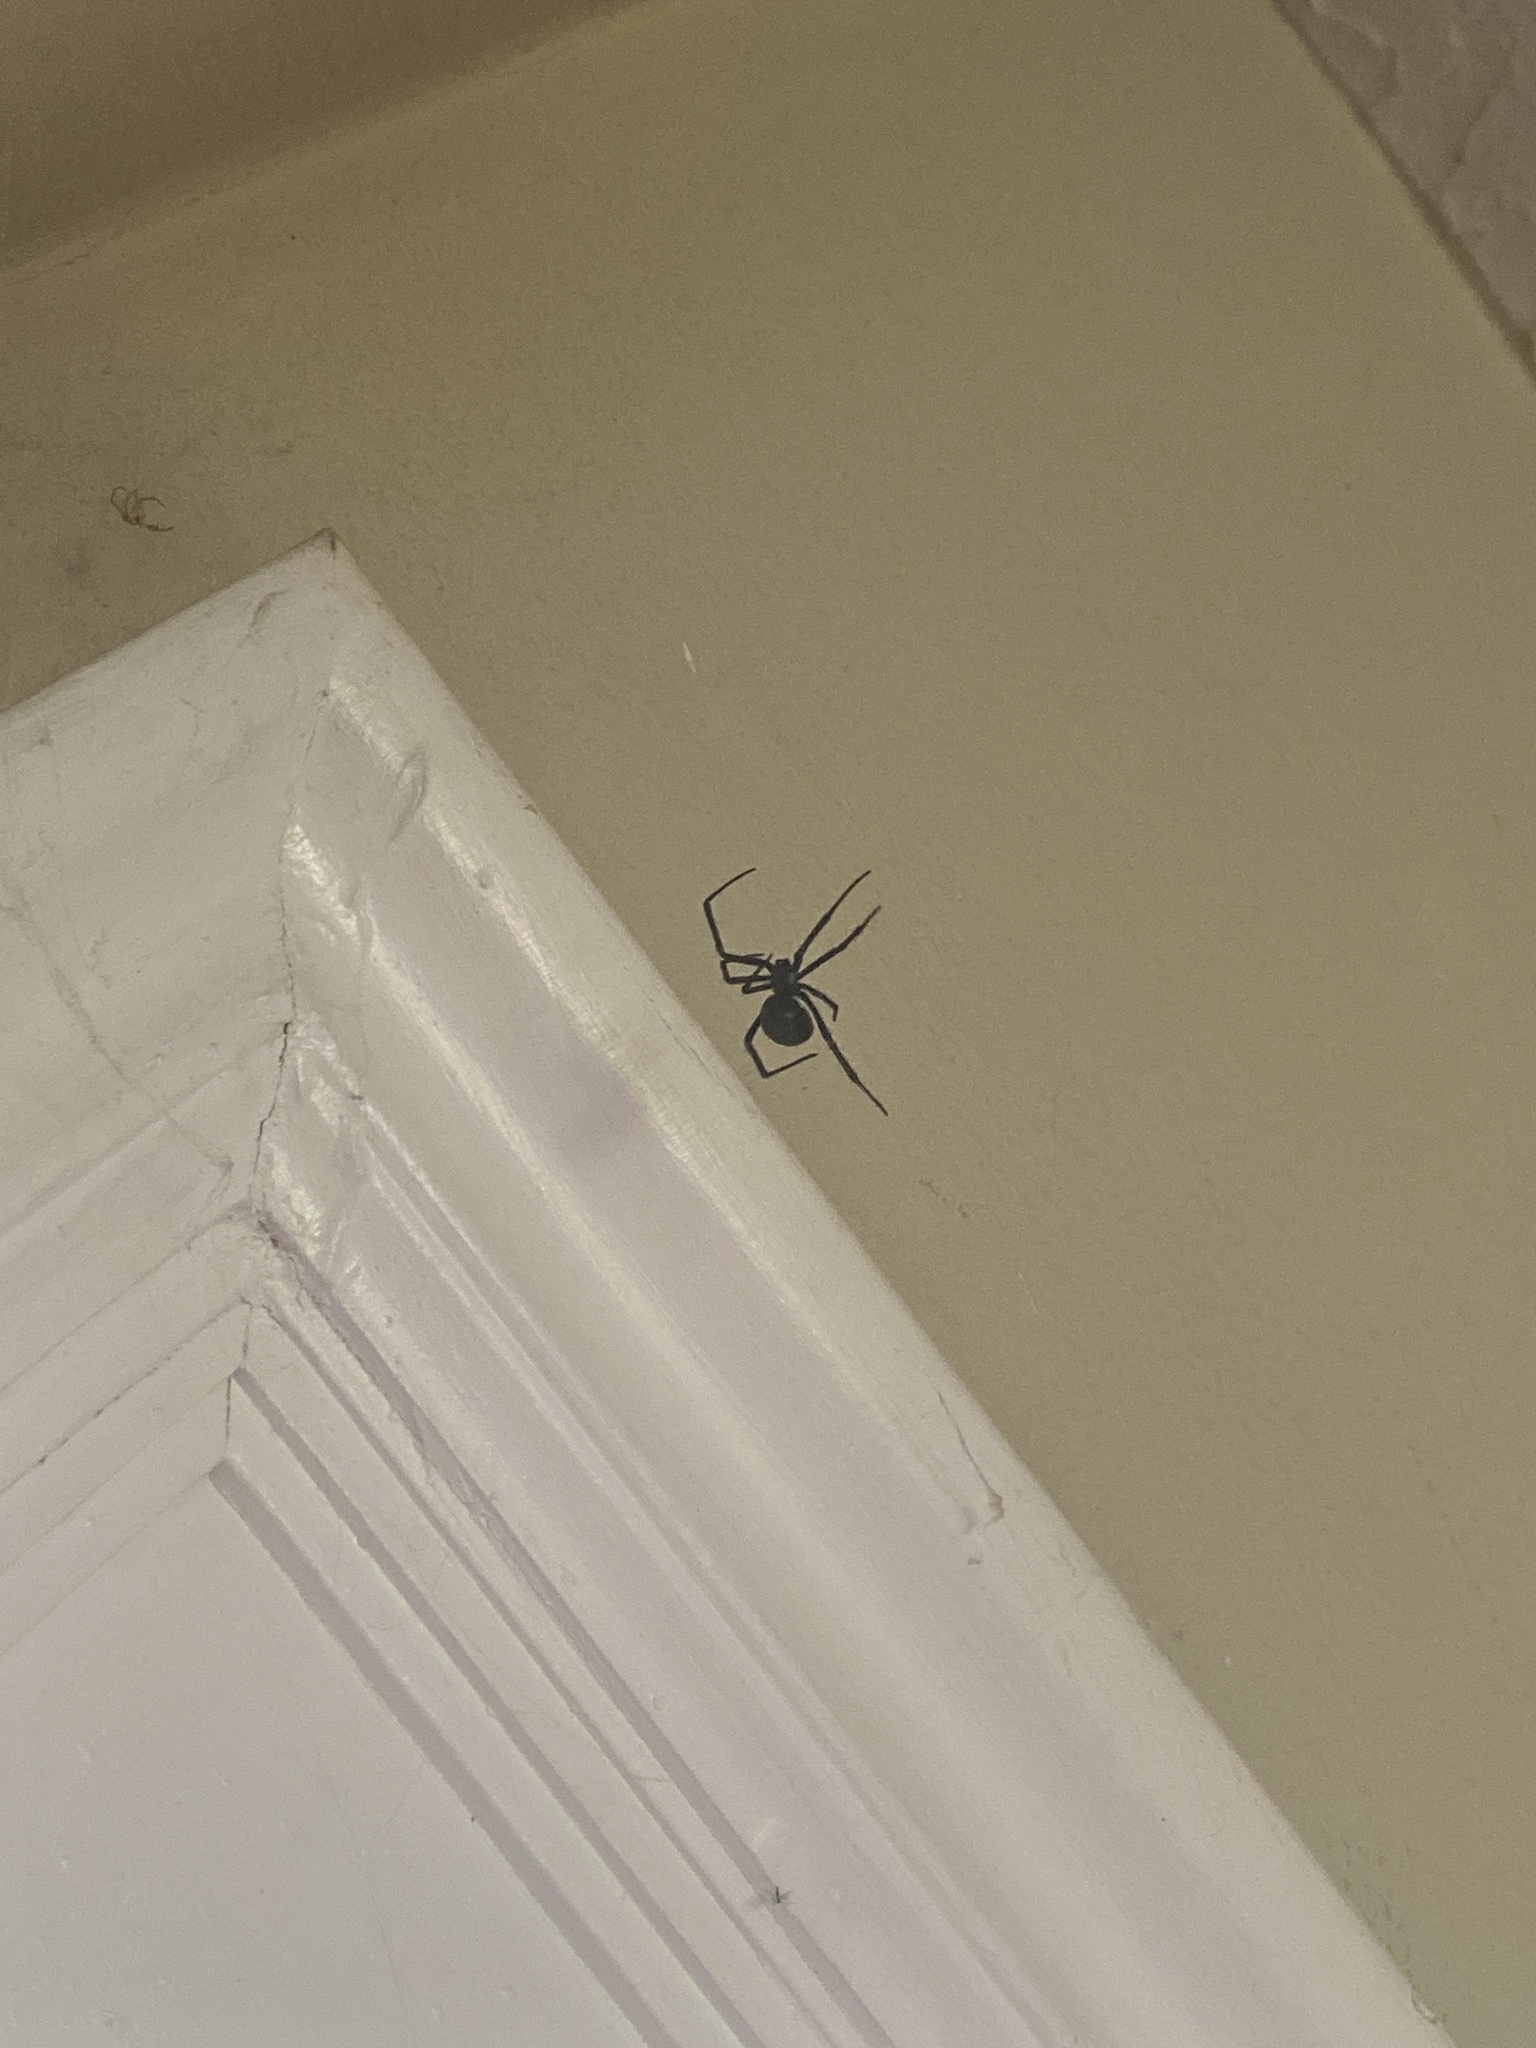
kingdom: Animalia
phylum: Arthropoda
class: Arachnida
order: Araneae
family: Theridiidae
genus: Latrodectus
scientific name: Latrodectus hesperus
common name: Western black widow
